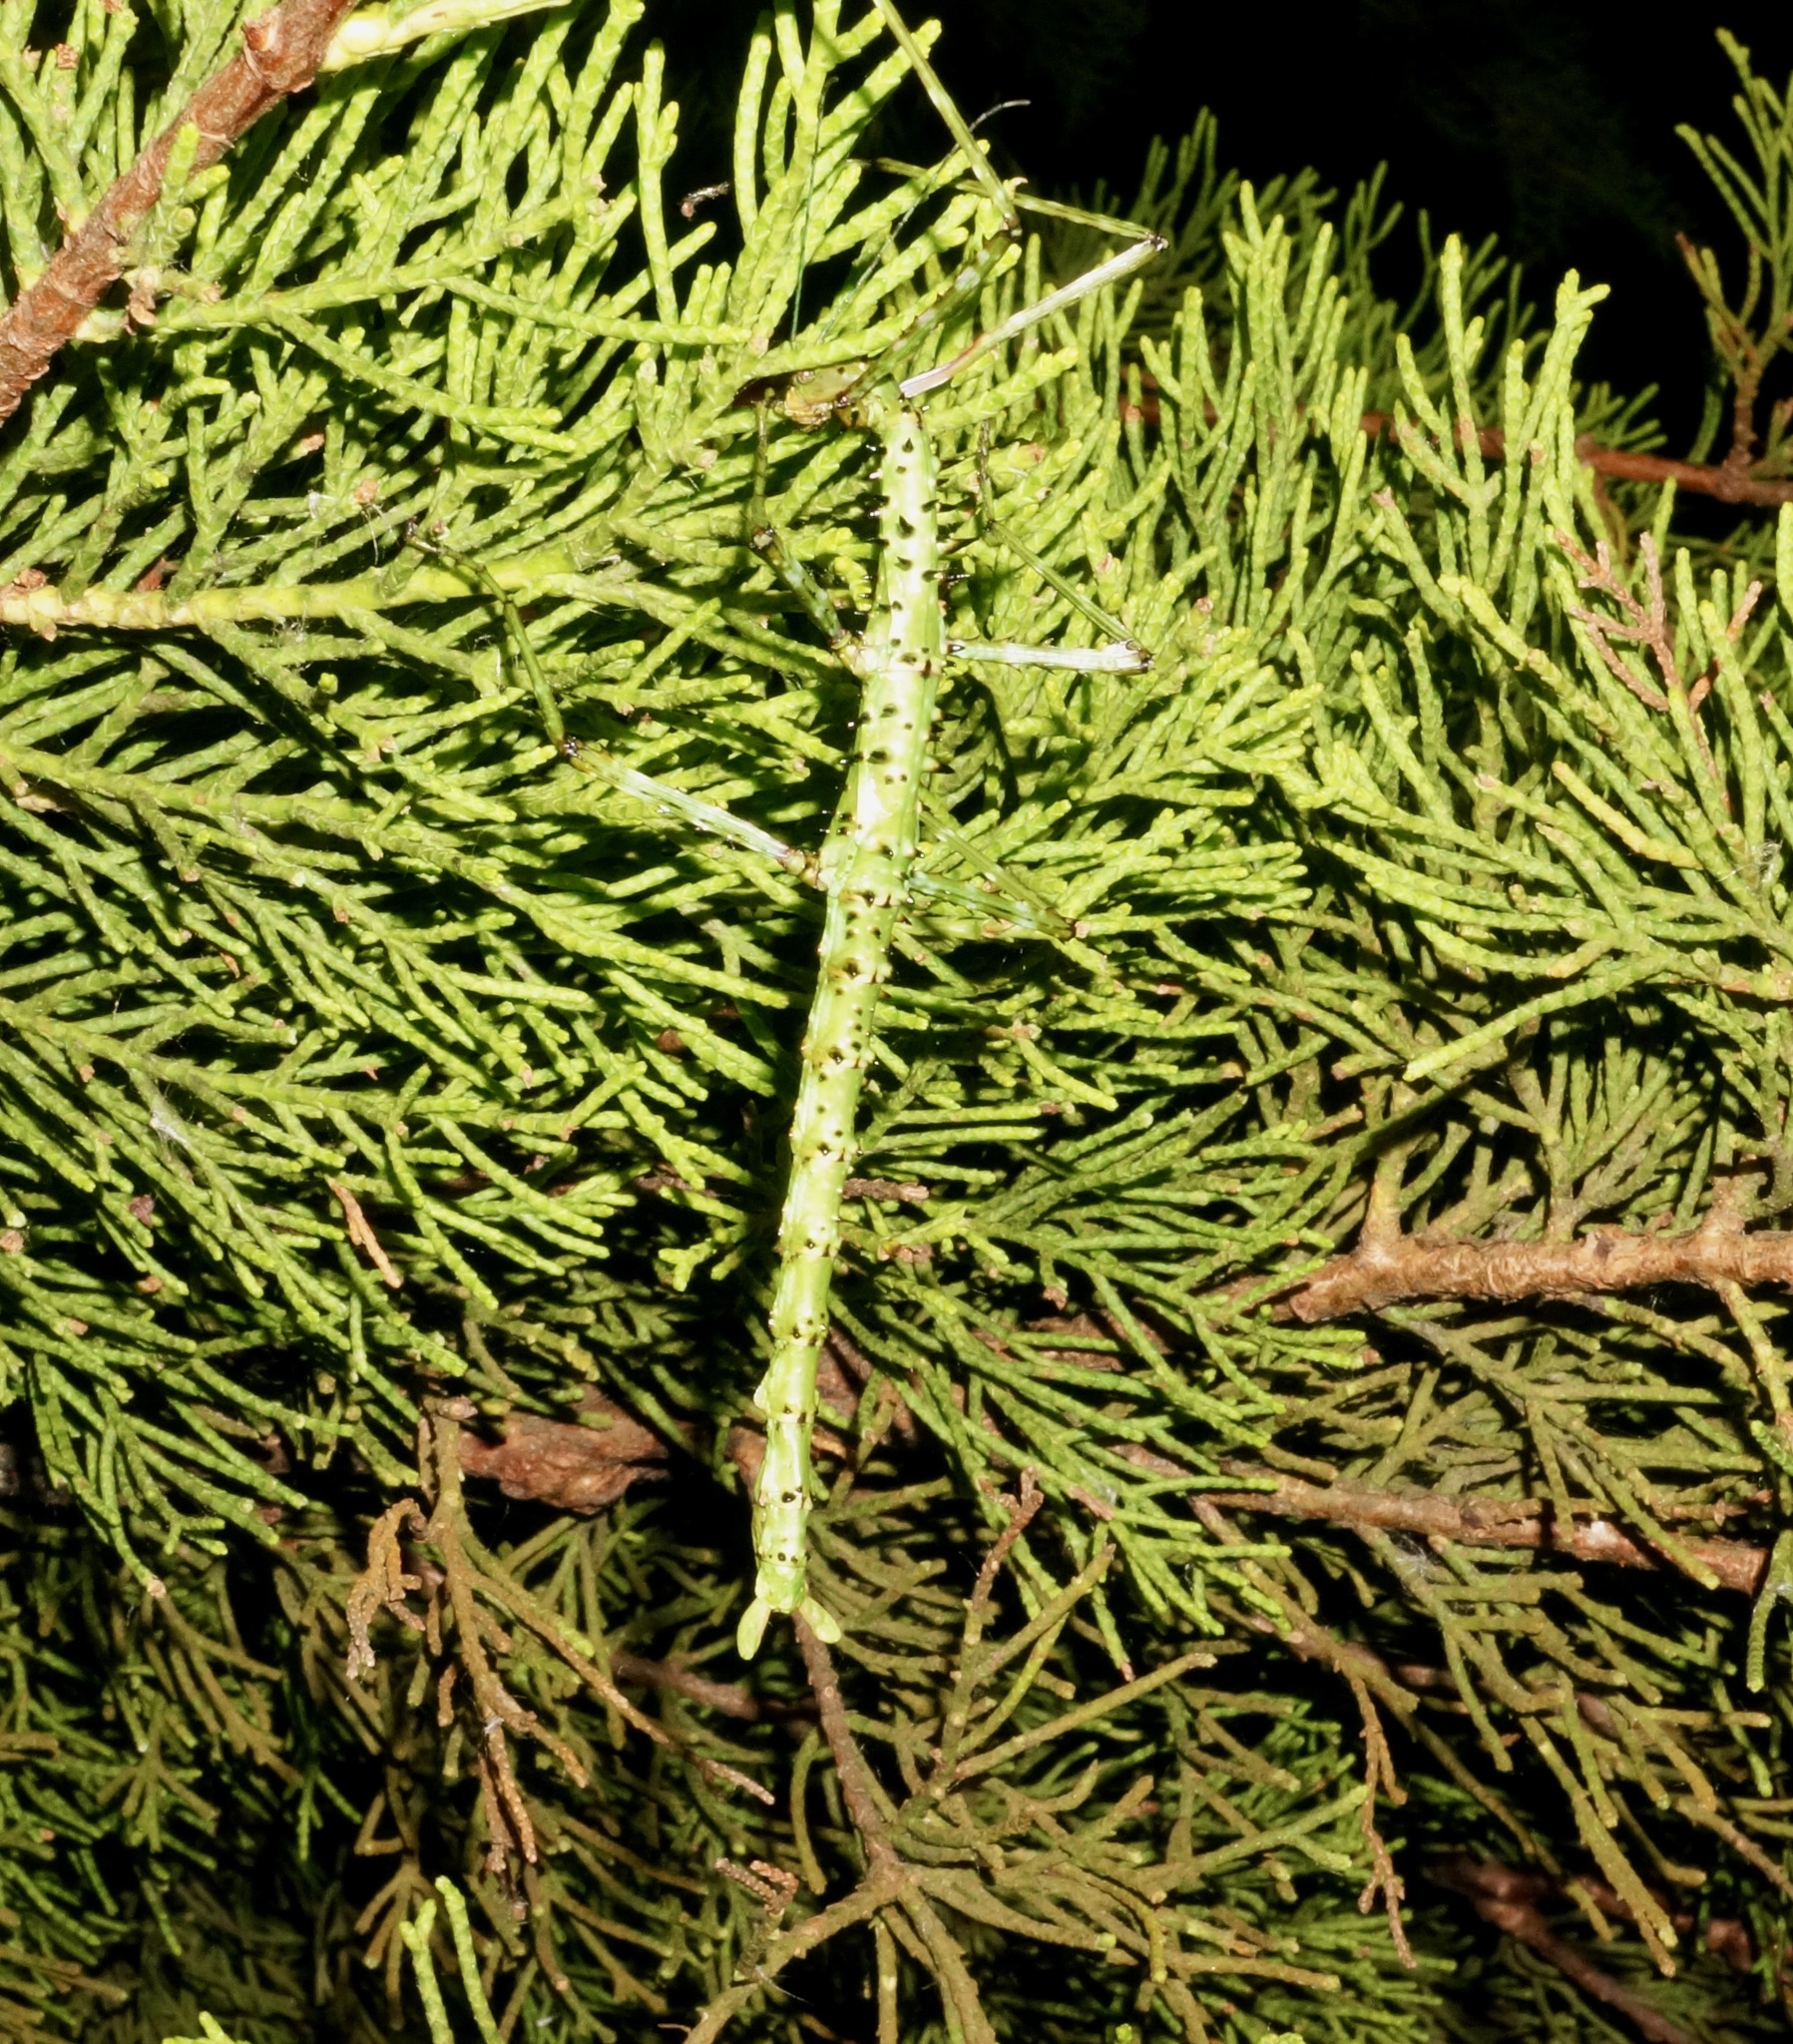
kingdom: Animalia
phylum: Arthropoda
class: Insecta
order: Phasmida
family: Phasmatidae
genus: Acanthoxyla
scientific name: Acanthoxyla geisovii
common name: Prickly stick insect
